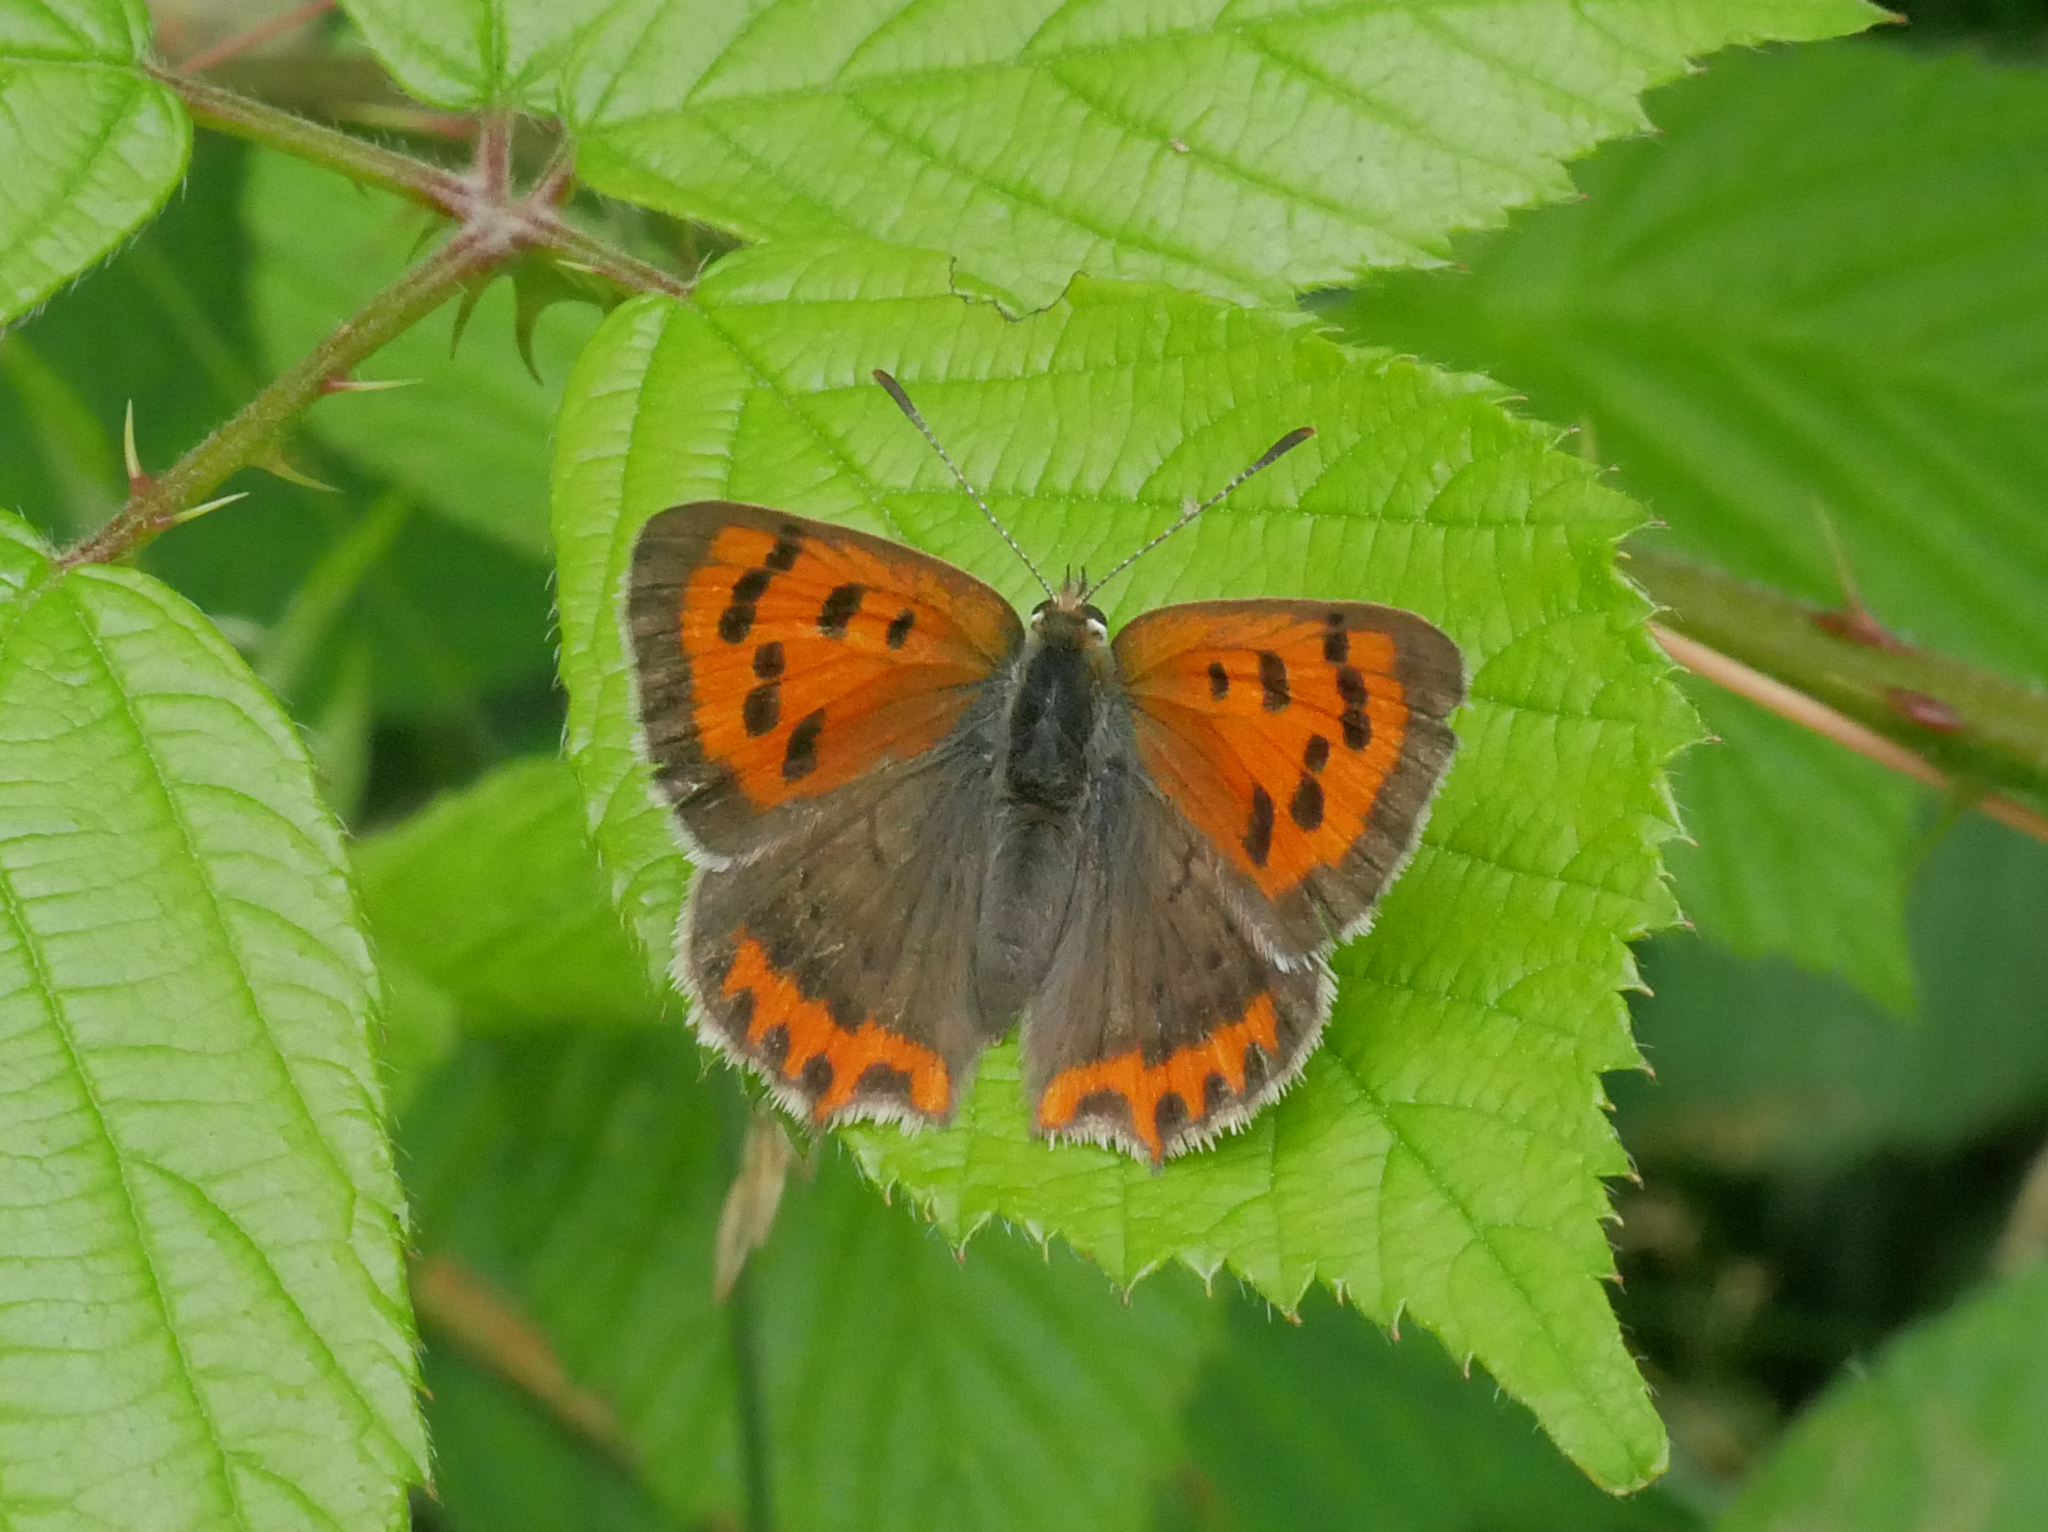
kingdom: Animalia
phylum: Arthropoda
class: Insecta
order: Lepidoptera
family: Lycaenidae
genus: Lycaena
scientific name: Lycaena phlaeas
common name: Small copper
